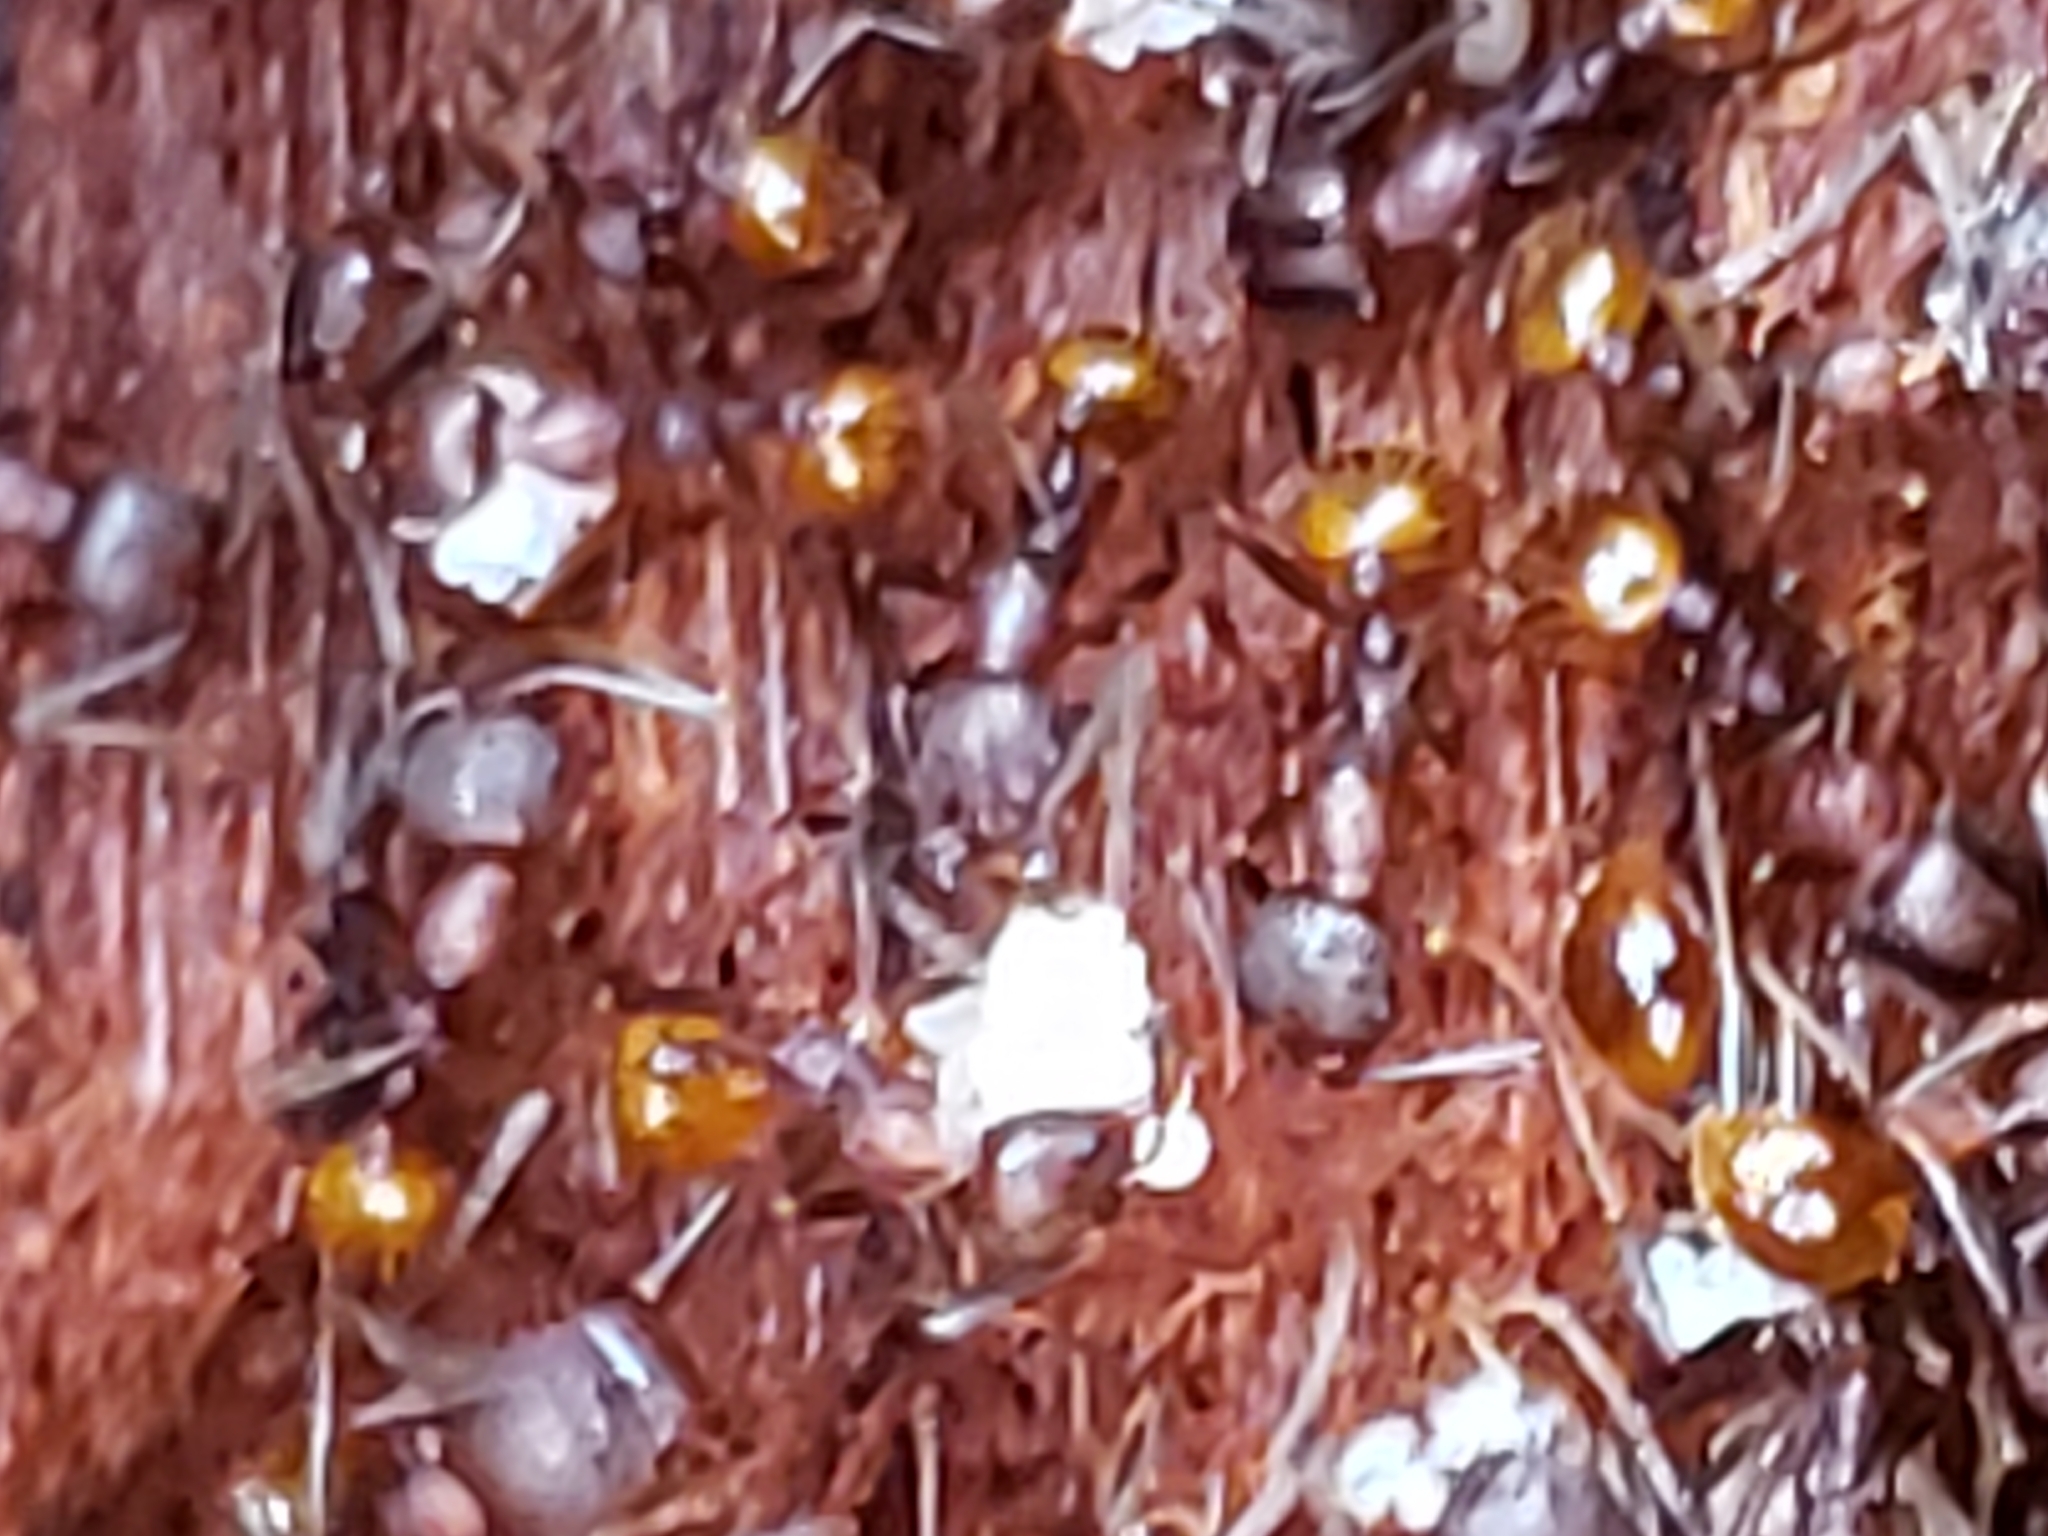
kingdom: Animalia
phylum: Arthropoda
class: Insecta
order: Hymenoptera
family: Formicidae
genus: Aphaenogaster
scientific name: Aphaenogaster fulva
